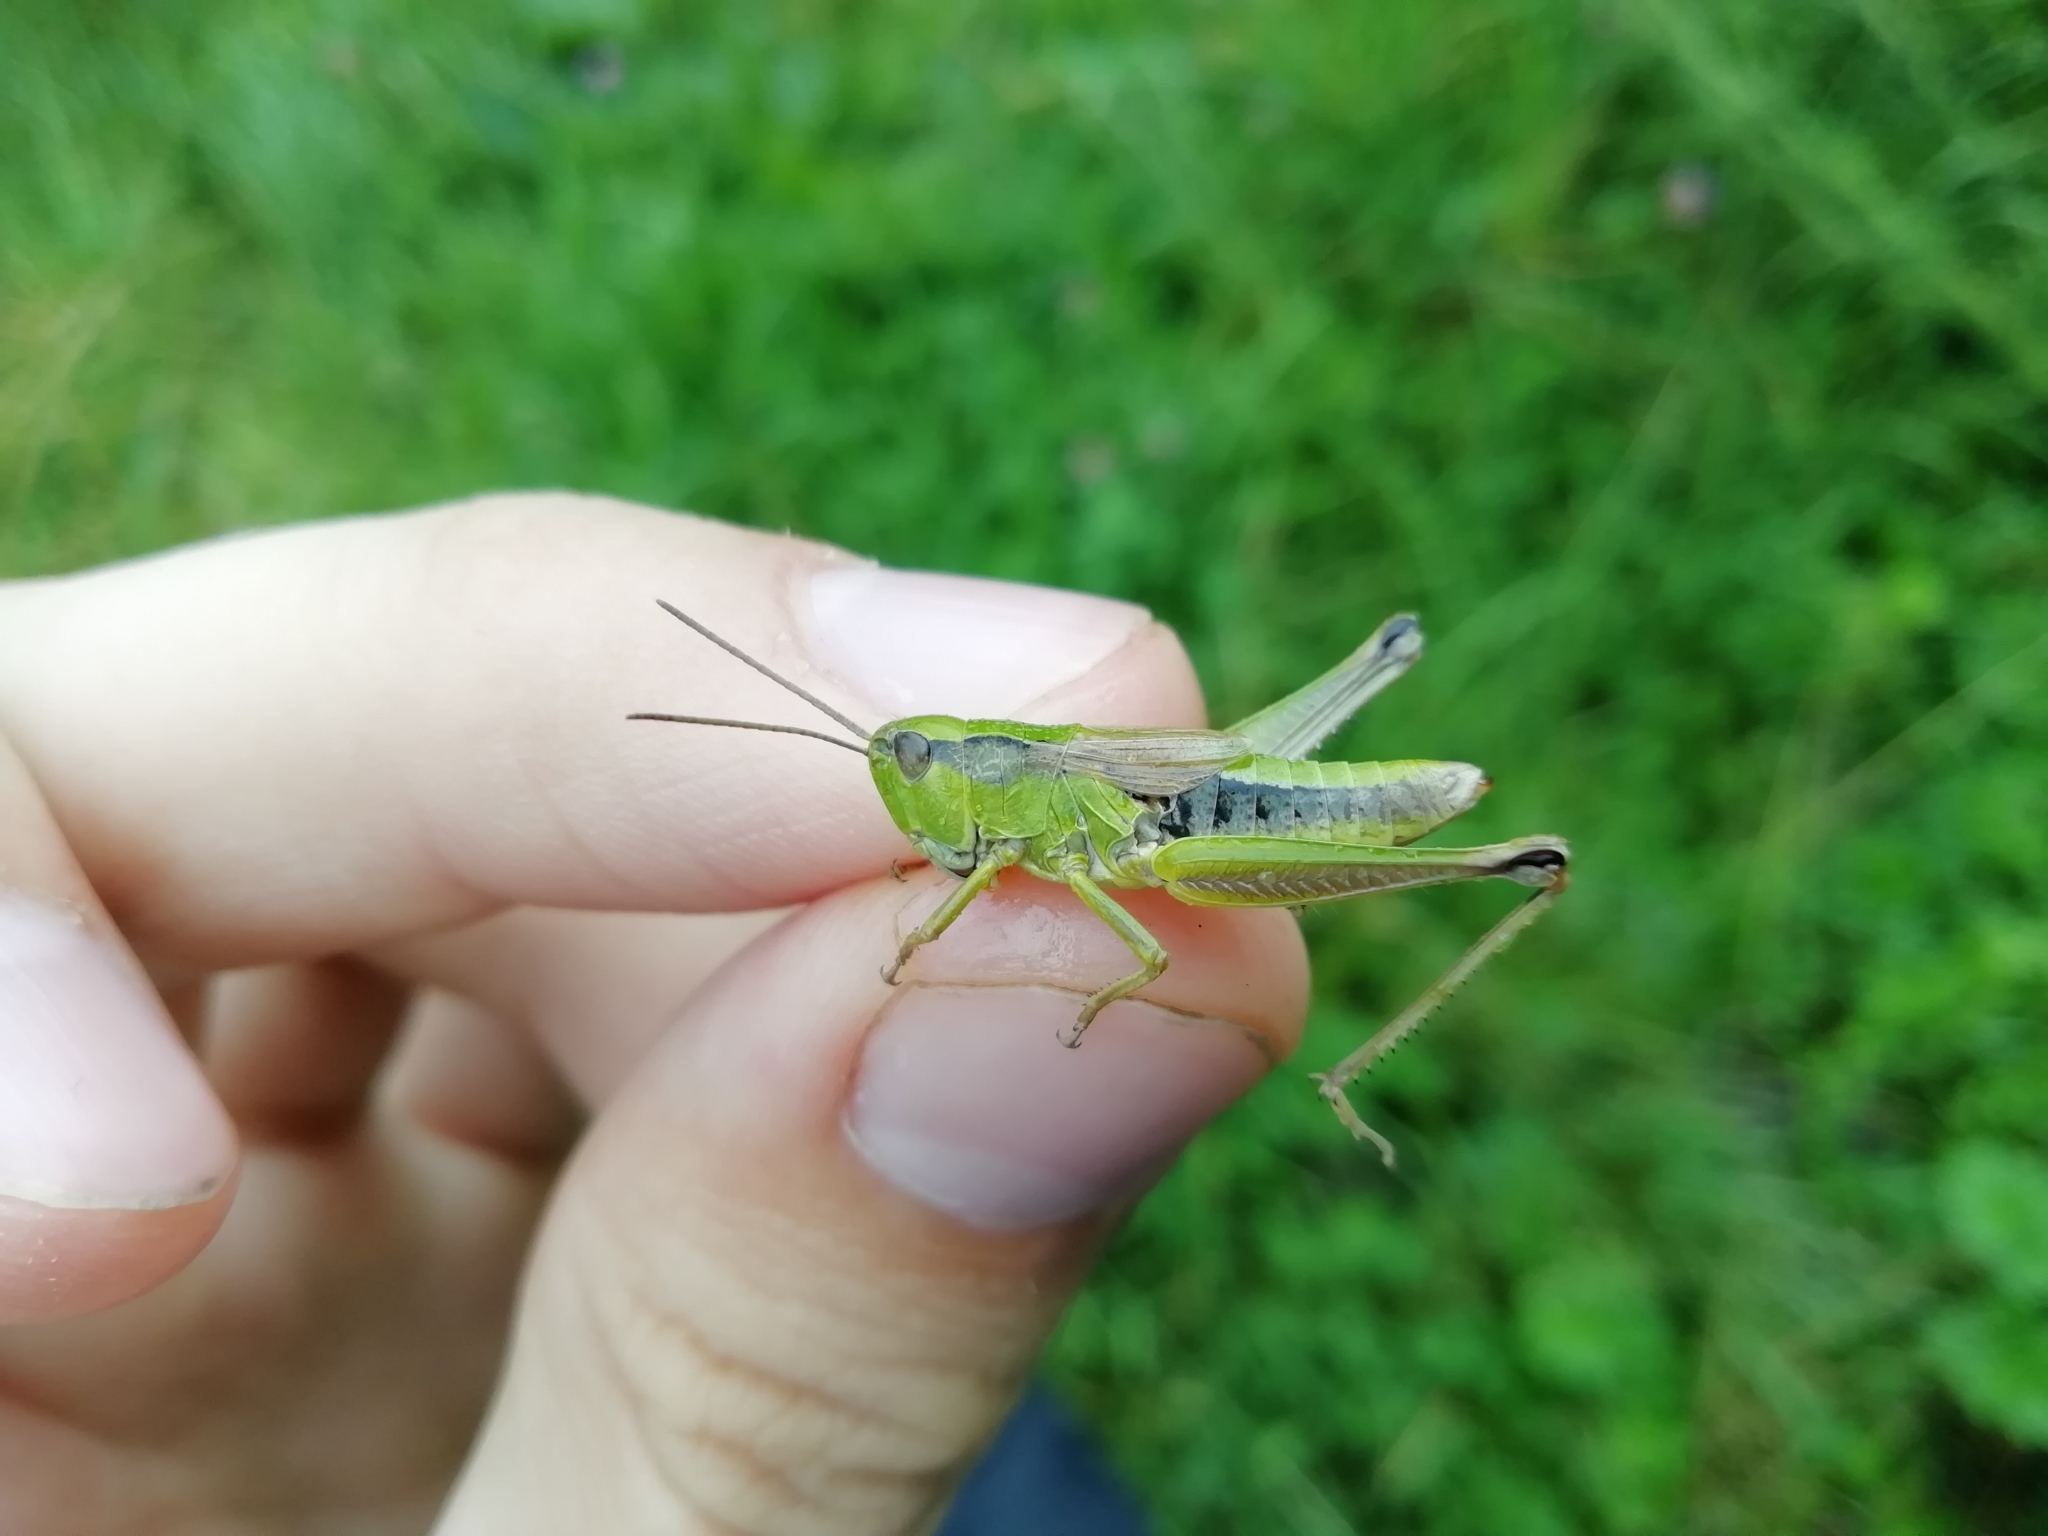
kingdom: Animalia
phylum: Arthropoda
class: Insecta
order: Orthoptera
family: Acrididae
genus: Chorthippus
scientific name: Chorthippus fallax
